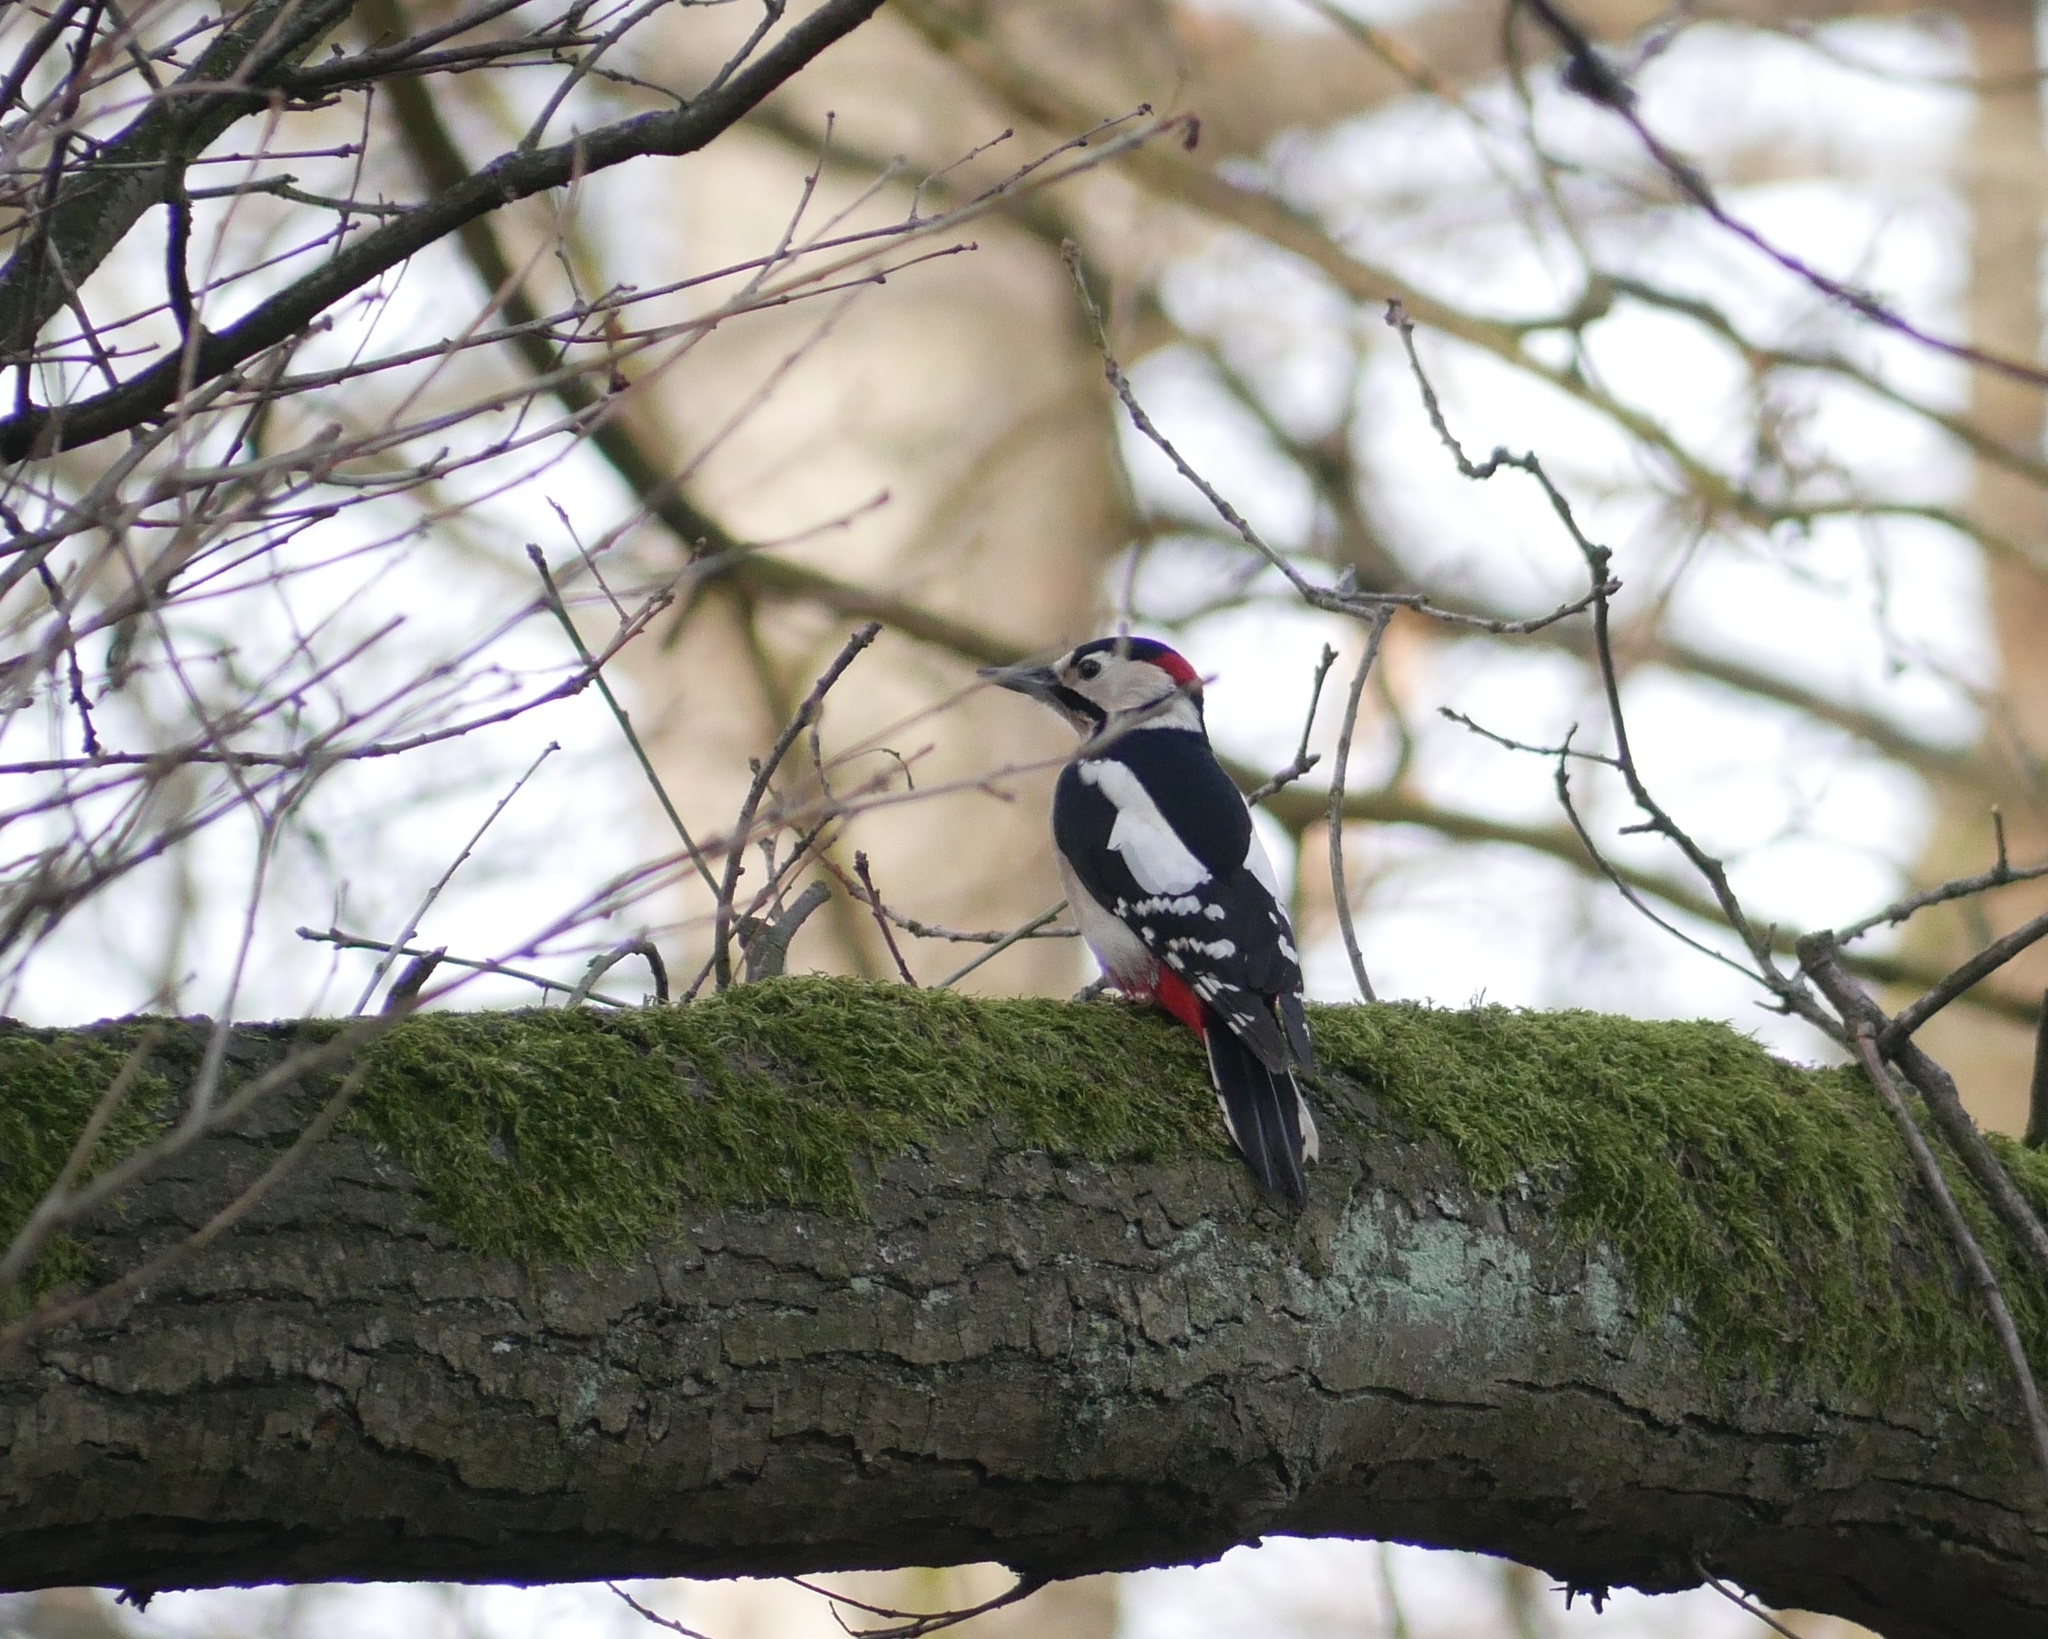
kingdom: Animalia
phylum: Chordata
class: Aves
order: Piciformes
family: Picidae
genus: Dendrocopos
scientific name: Dendrocopos major
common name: Great spotted woodpecker
